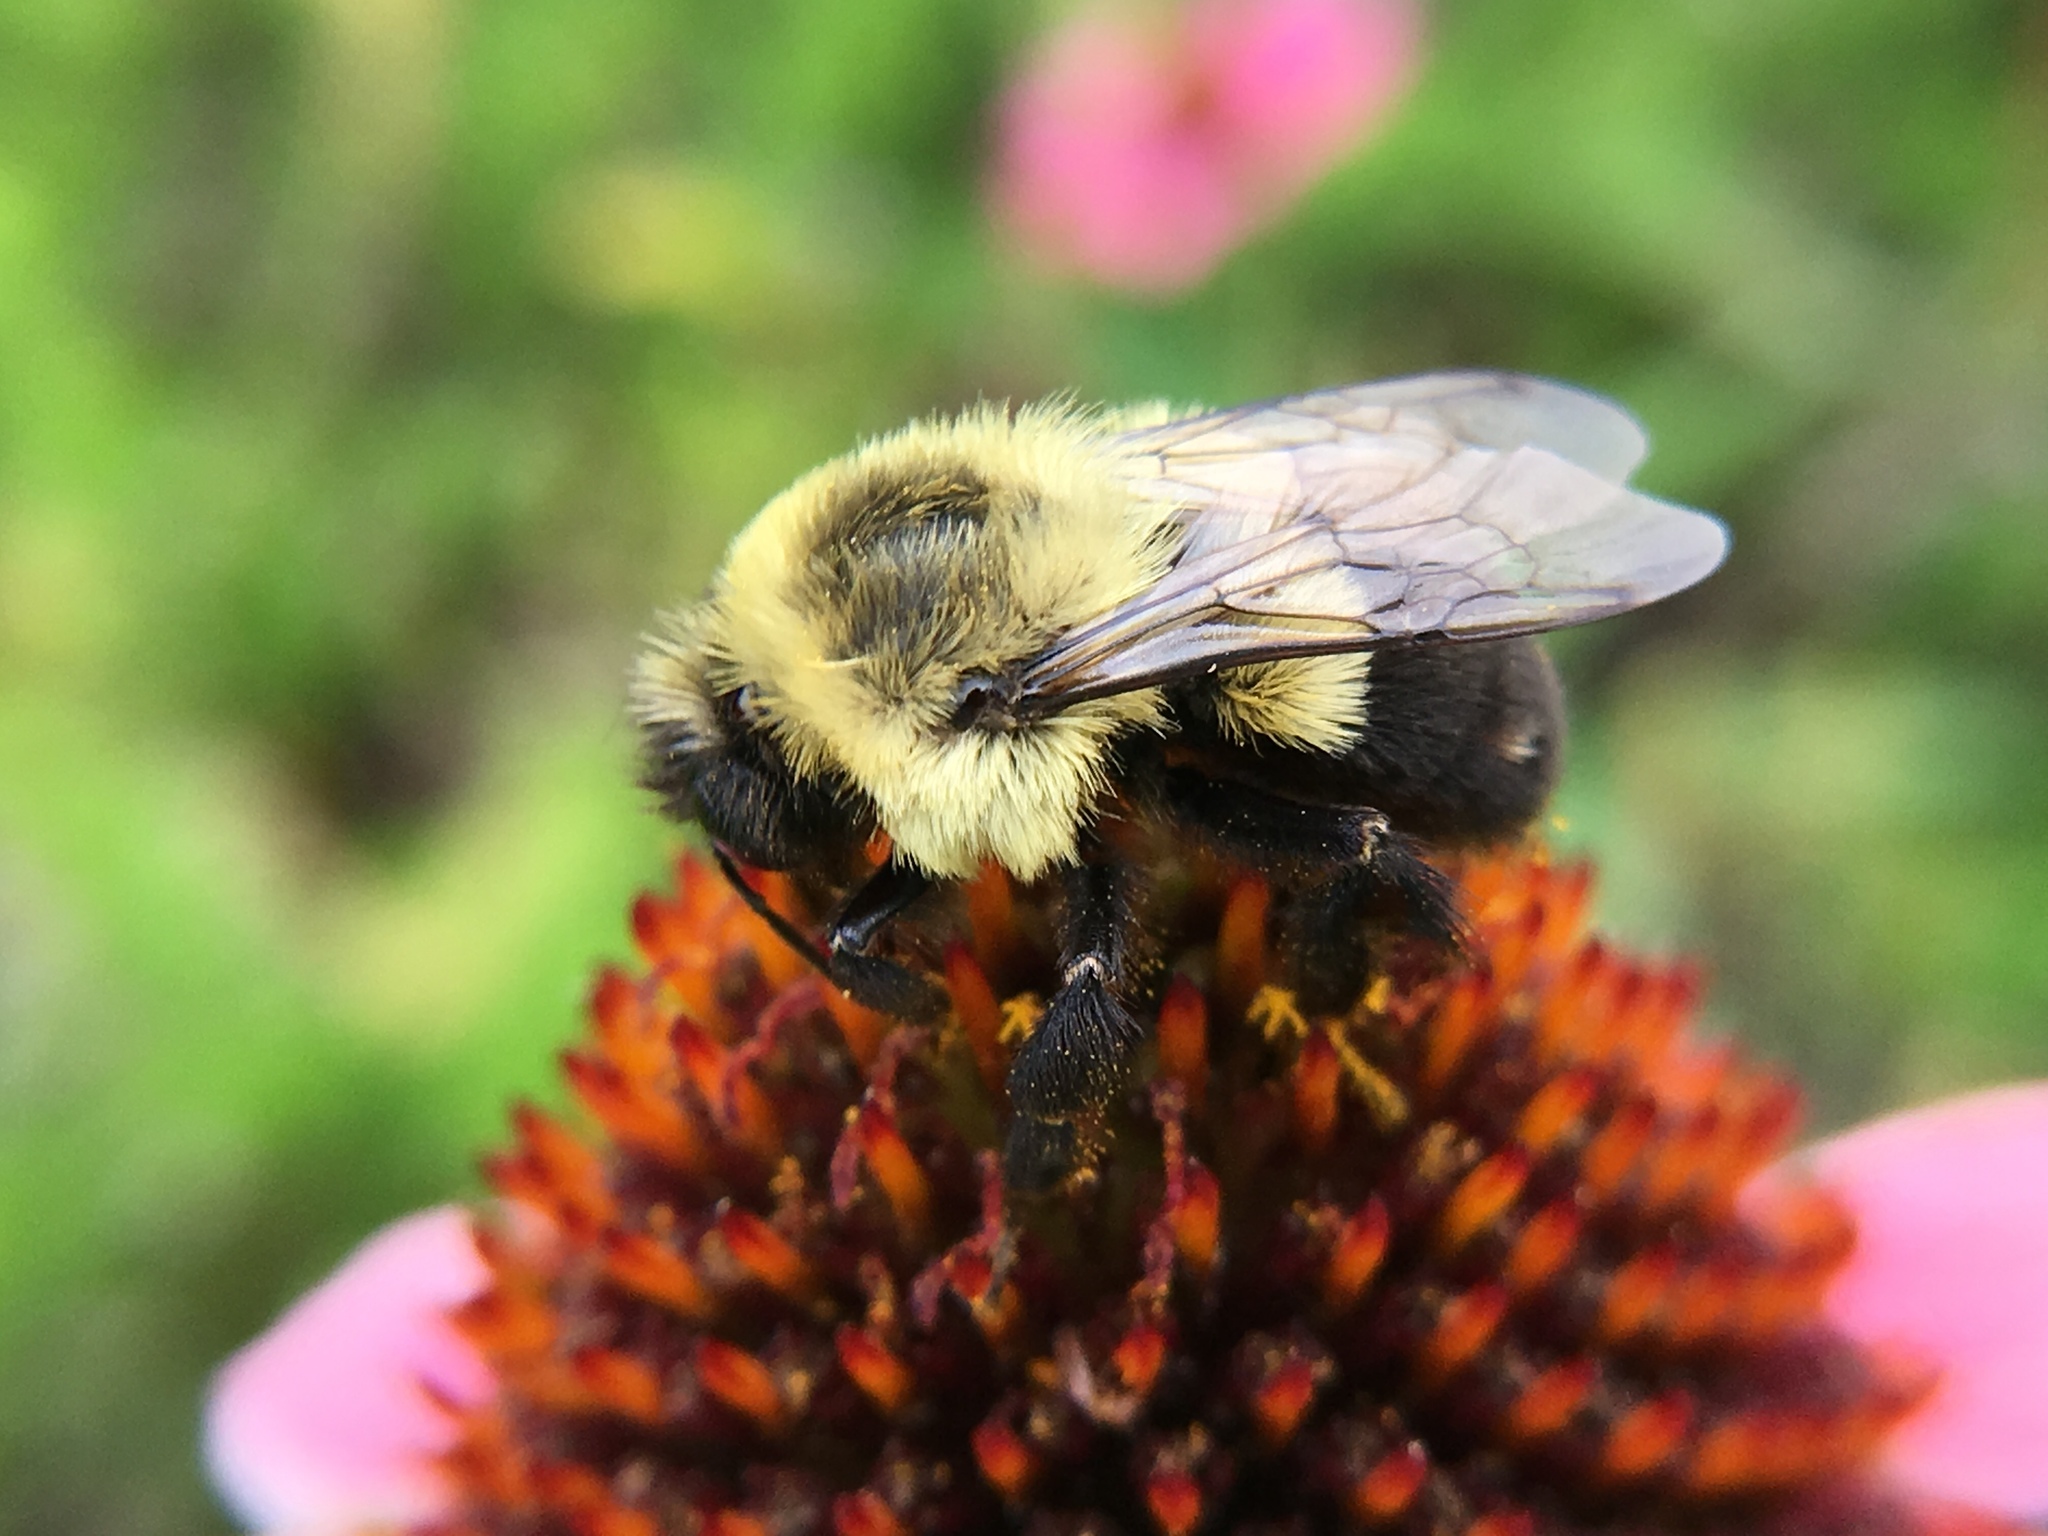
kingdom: Animalia
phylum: Arthropoda
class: Insecta
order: Hymenoptera
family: Apidae
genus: Bombus
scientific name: Bombus impatiens
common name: Common eastern bumble bee
